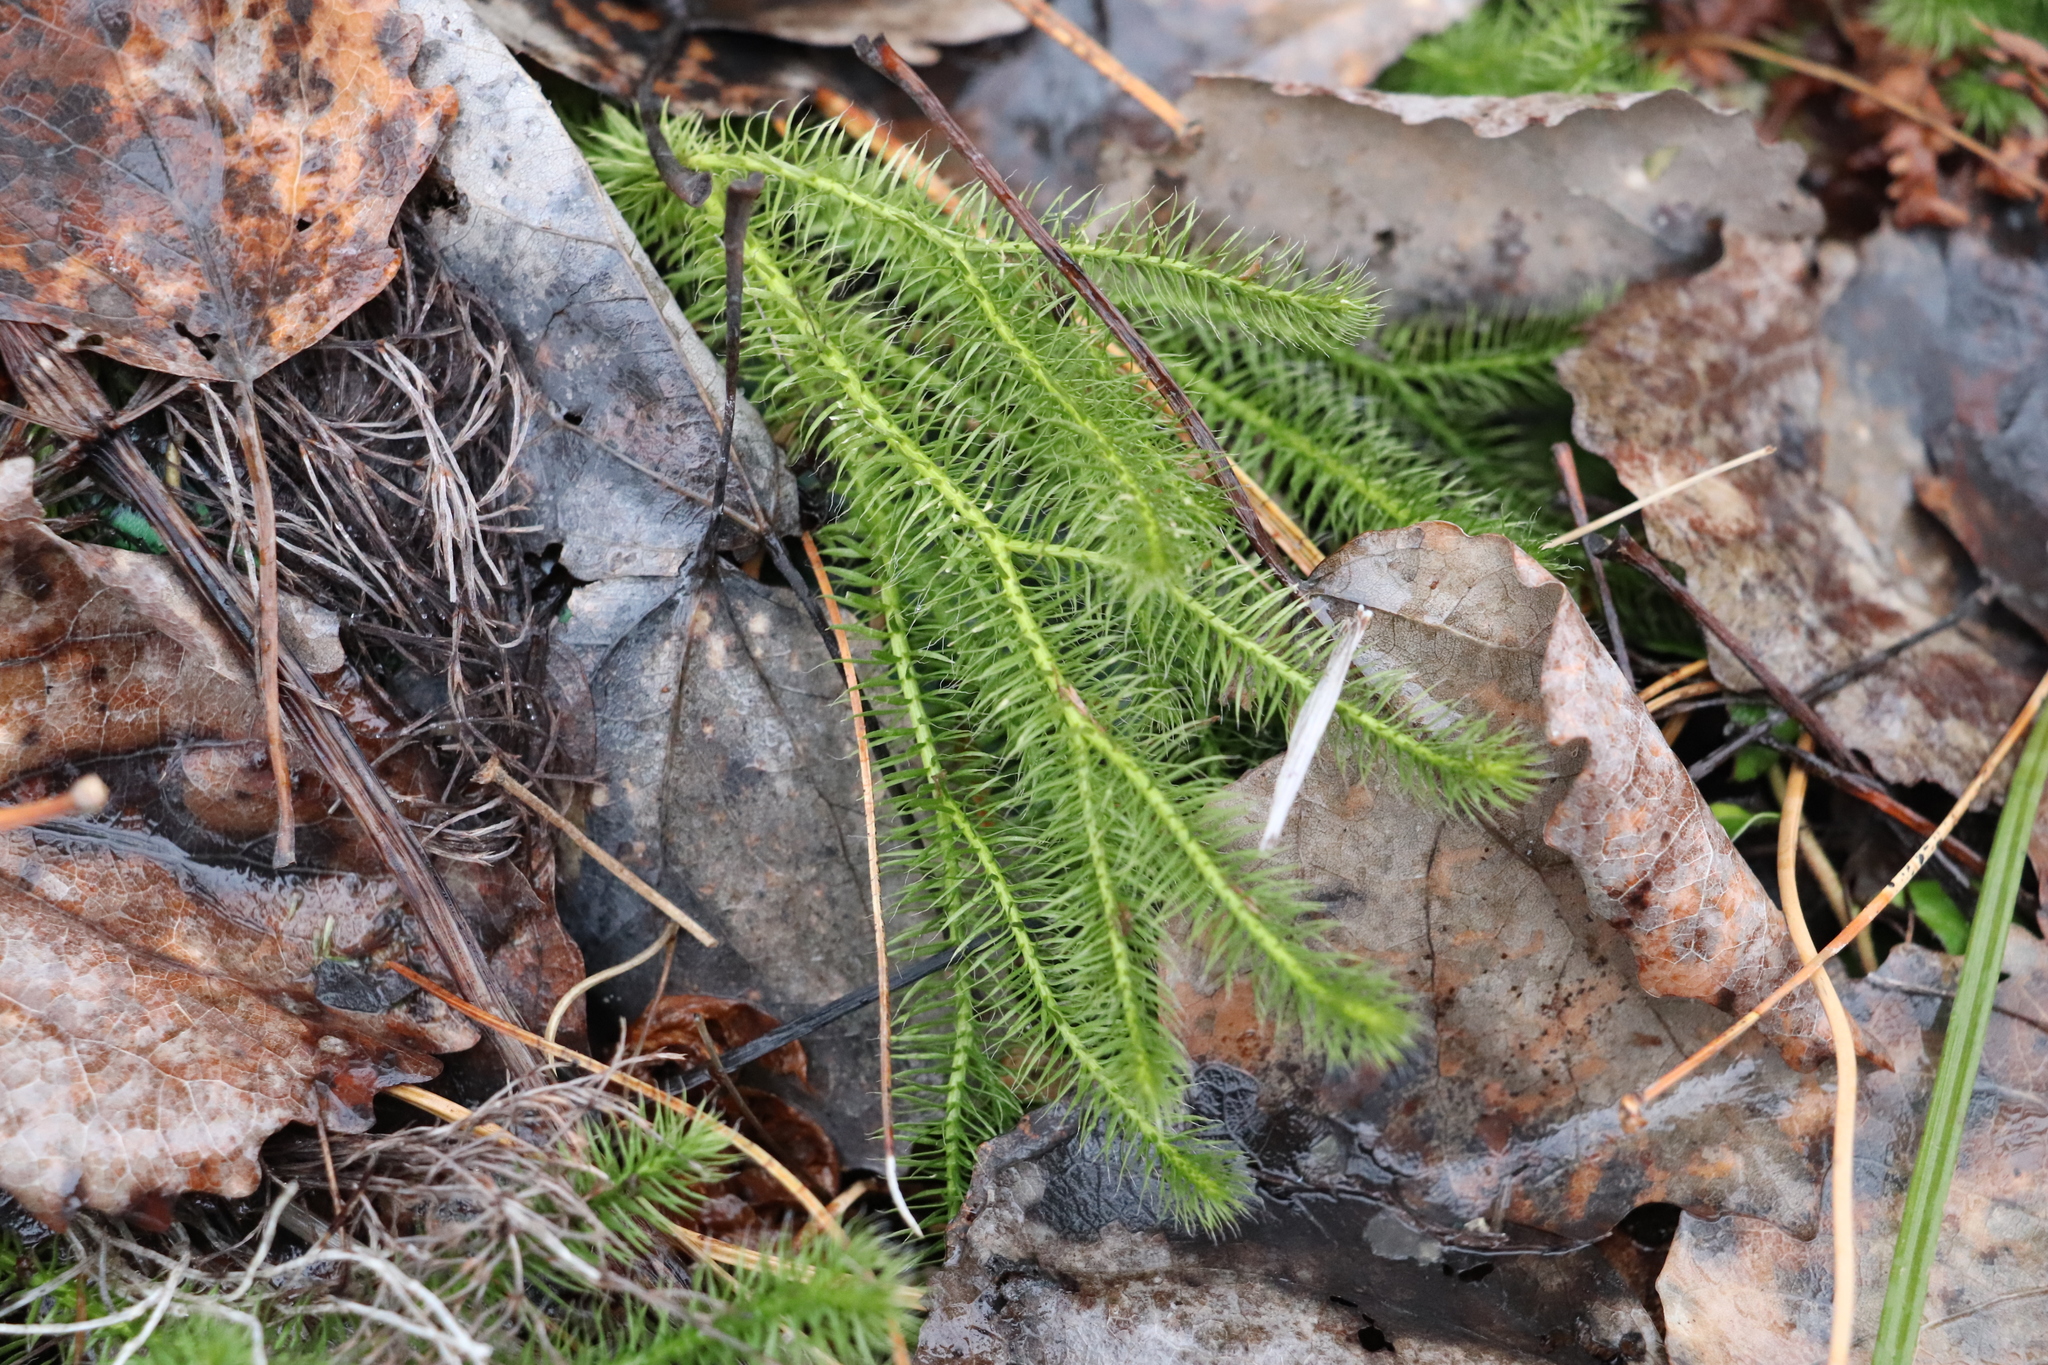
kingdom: Plantae
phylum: Tracheophyta
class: Lycopodiopsida
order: Lycopodiales
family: Lycopodiaceae
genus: Lycopodium
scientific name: Lycopodium clavatum
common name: Stag's-horn clubmoss
